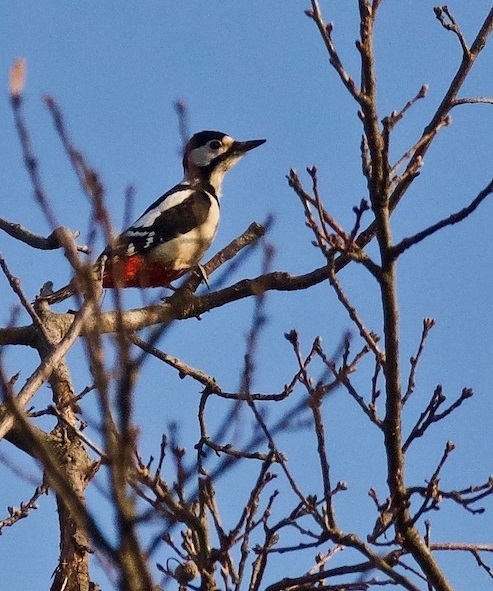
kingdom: Animalia
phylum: Chordata
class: Aves
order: Piciformes
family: Picidae
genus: Dendrocopos
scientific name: Dendrocopos major
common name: Great spotted woodpecker
